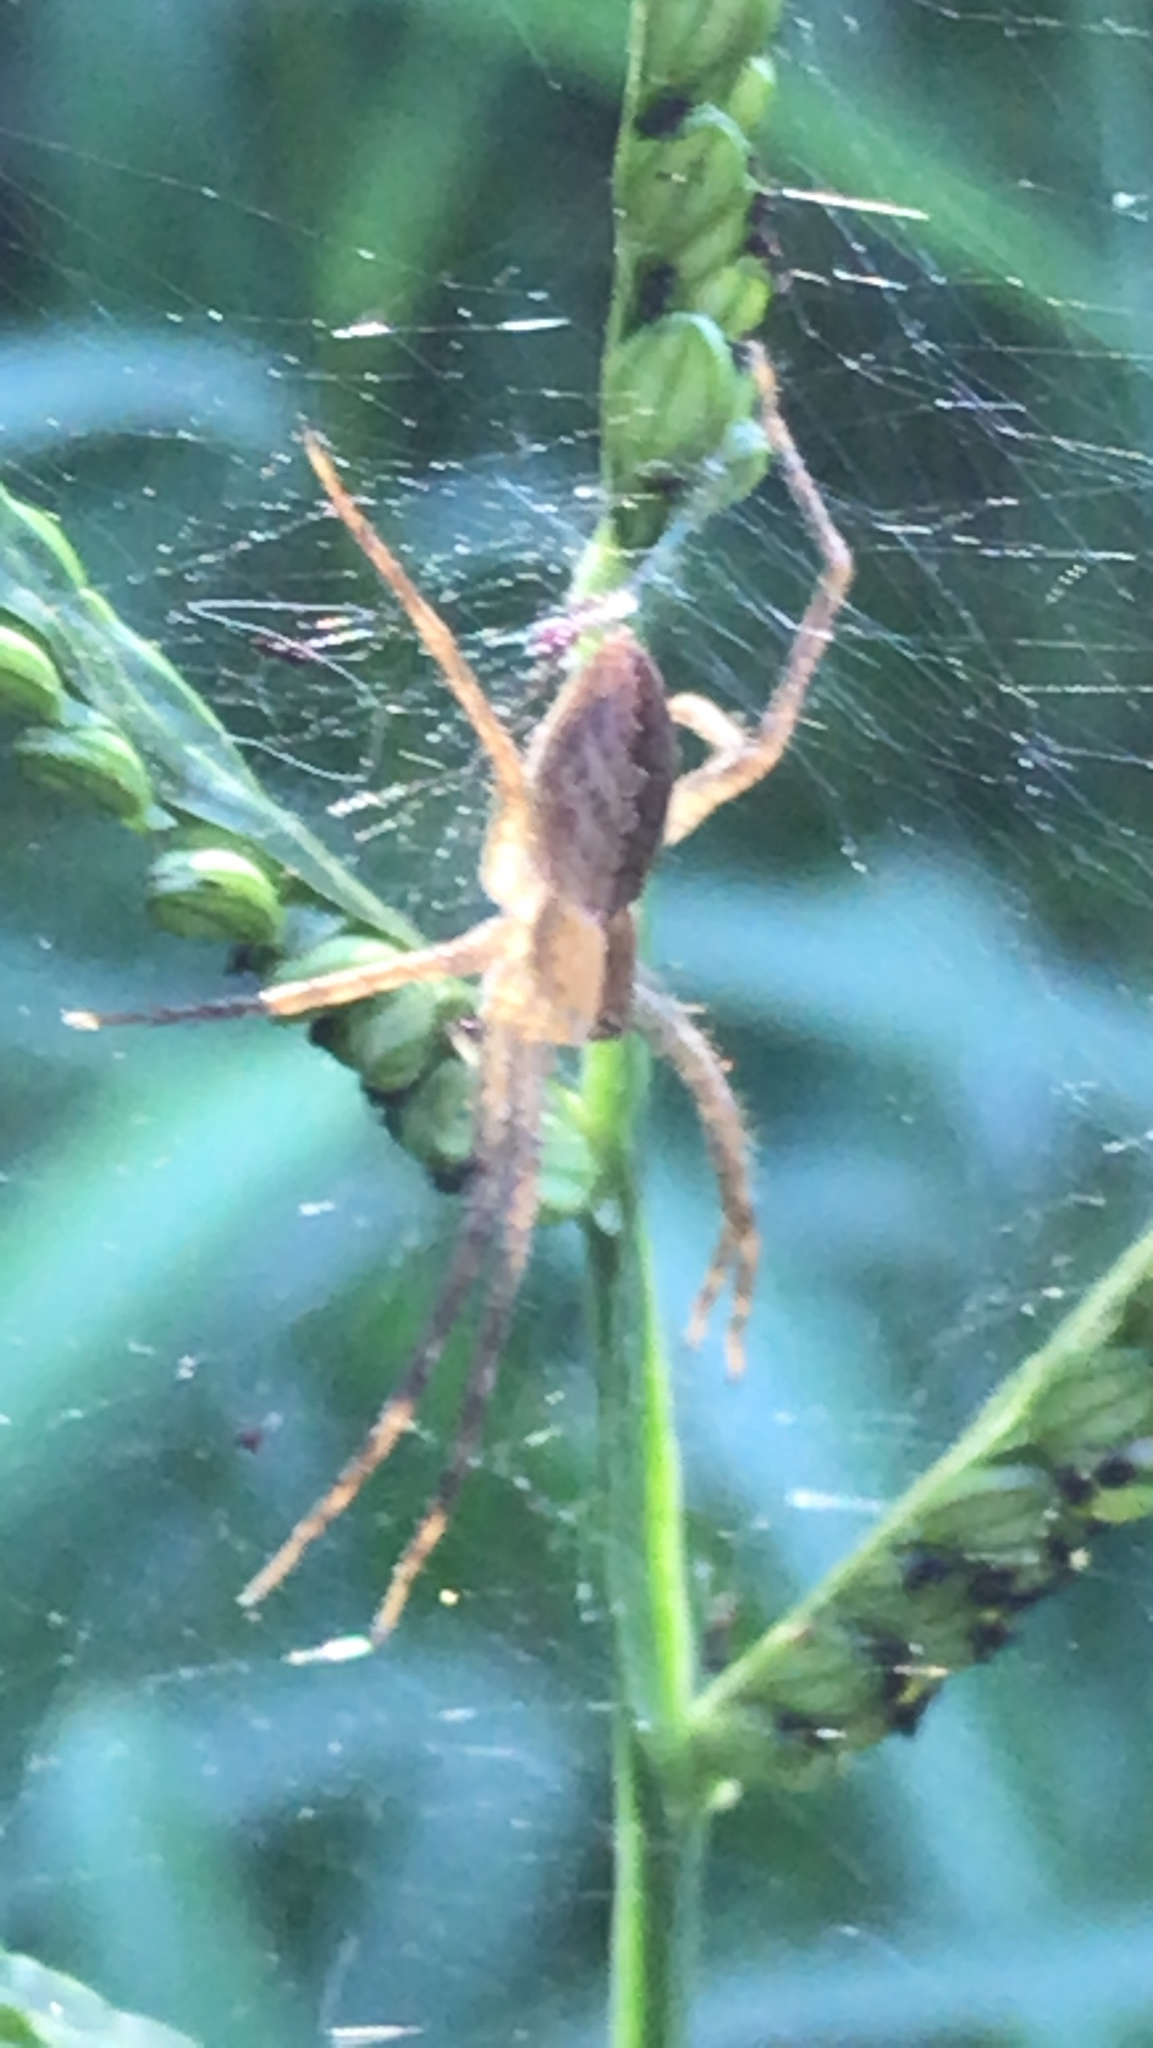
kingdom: Animalia
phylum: Arthropoda
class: Arachnida
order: Araneae
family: Pisauridae
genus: Pisaurina
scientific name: Pisaurina mira
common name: American nursery web spider
